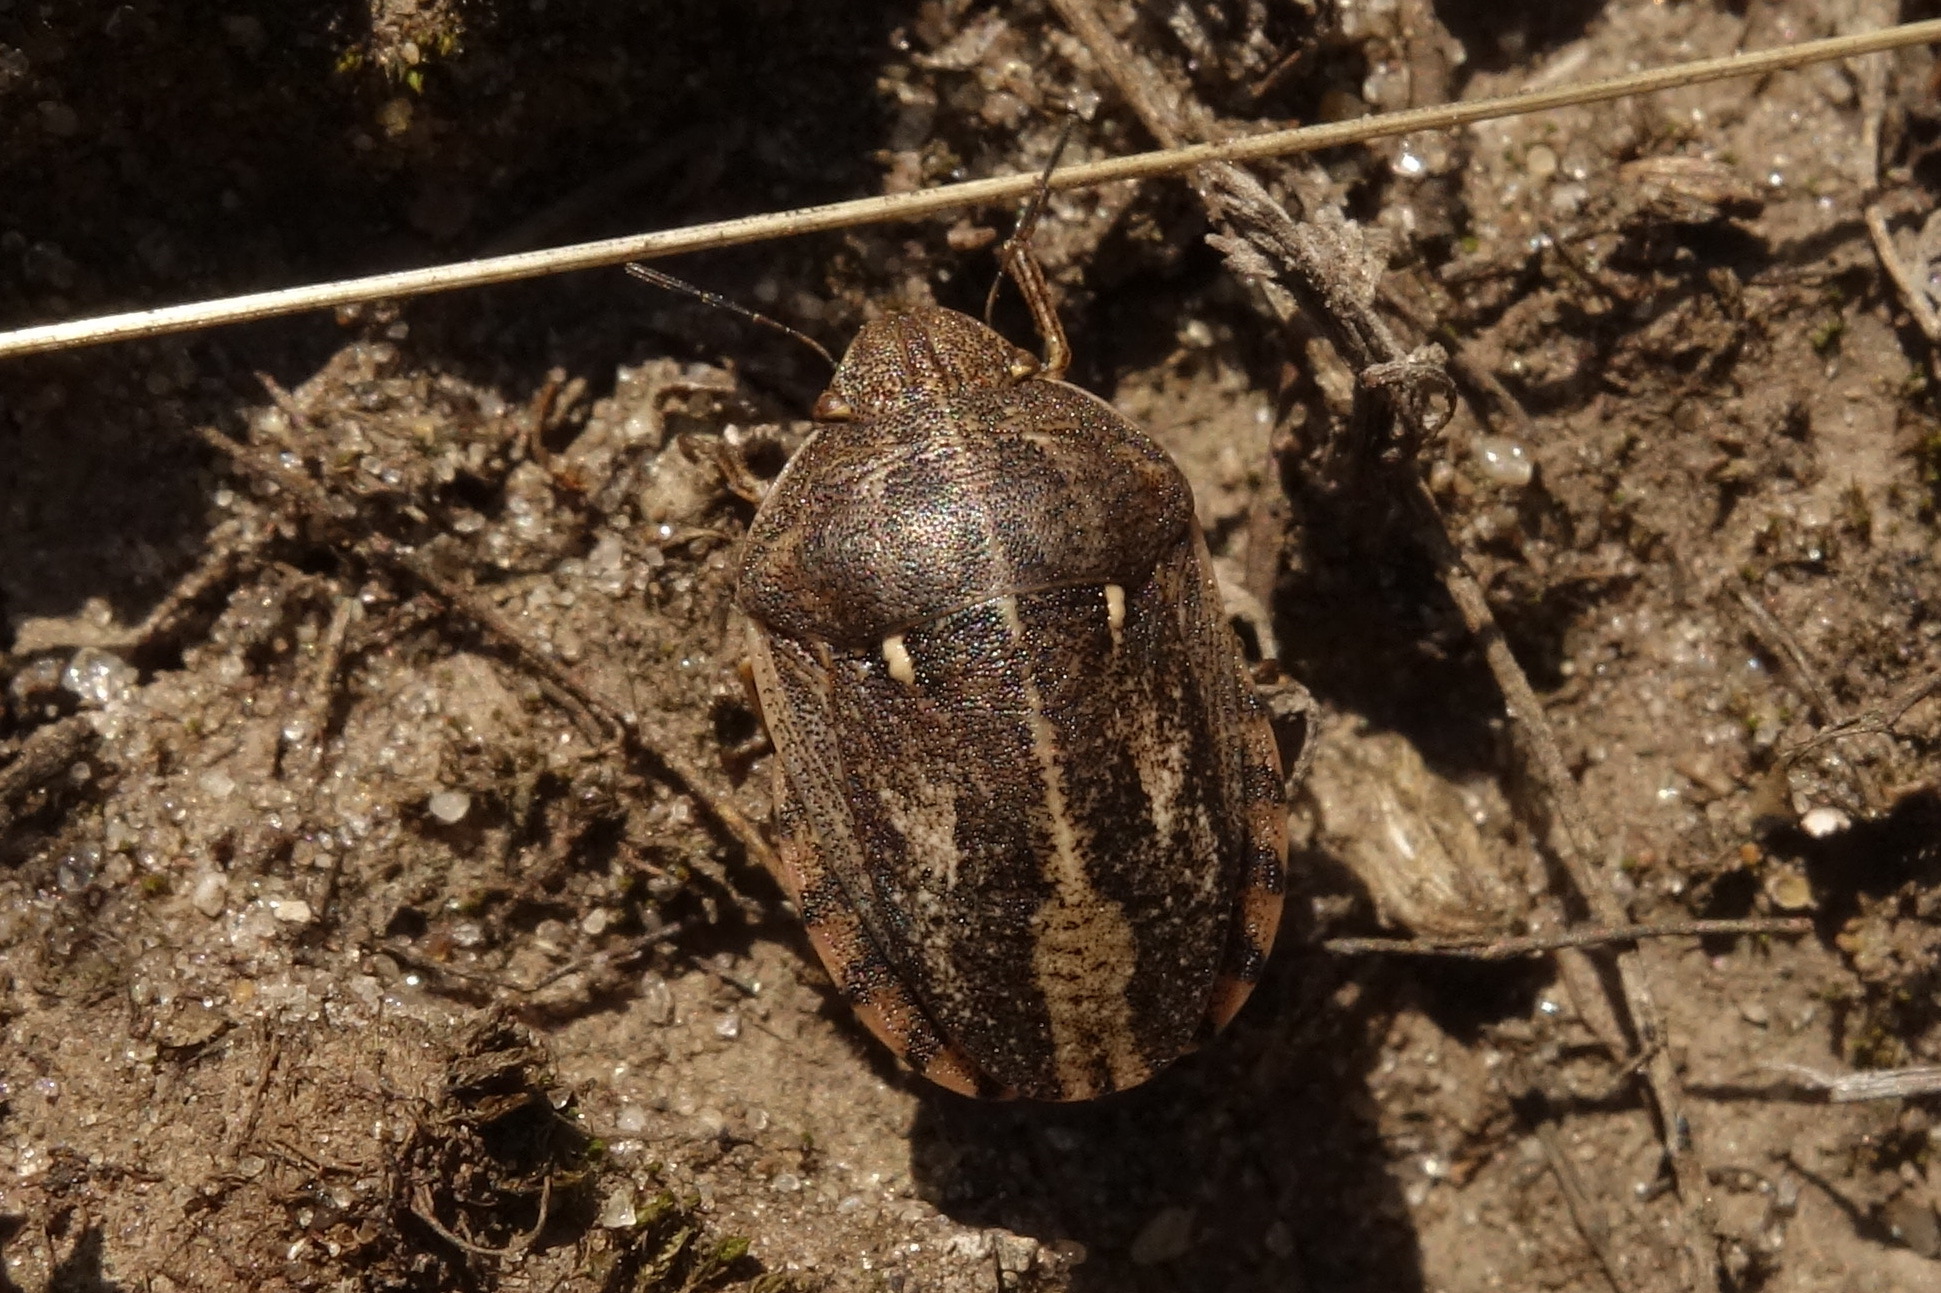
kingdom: Animalia
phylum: Arthropoda
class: Insecta
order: Hemiptera
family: Scutelleridae
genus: Eurygaster
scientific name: Eurygaster integriceps
